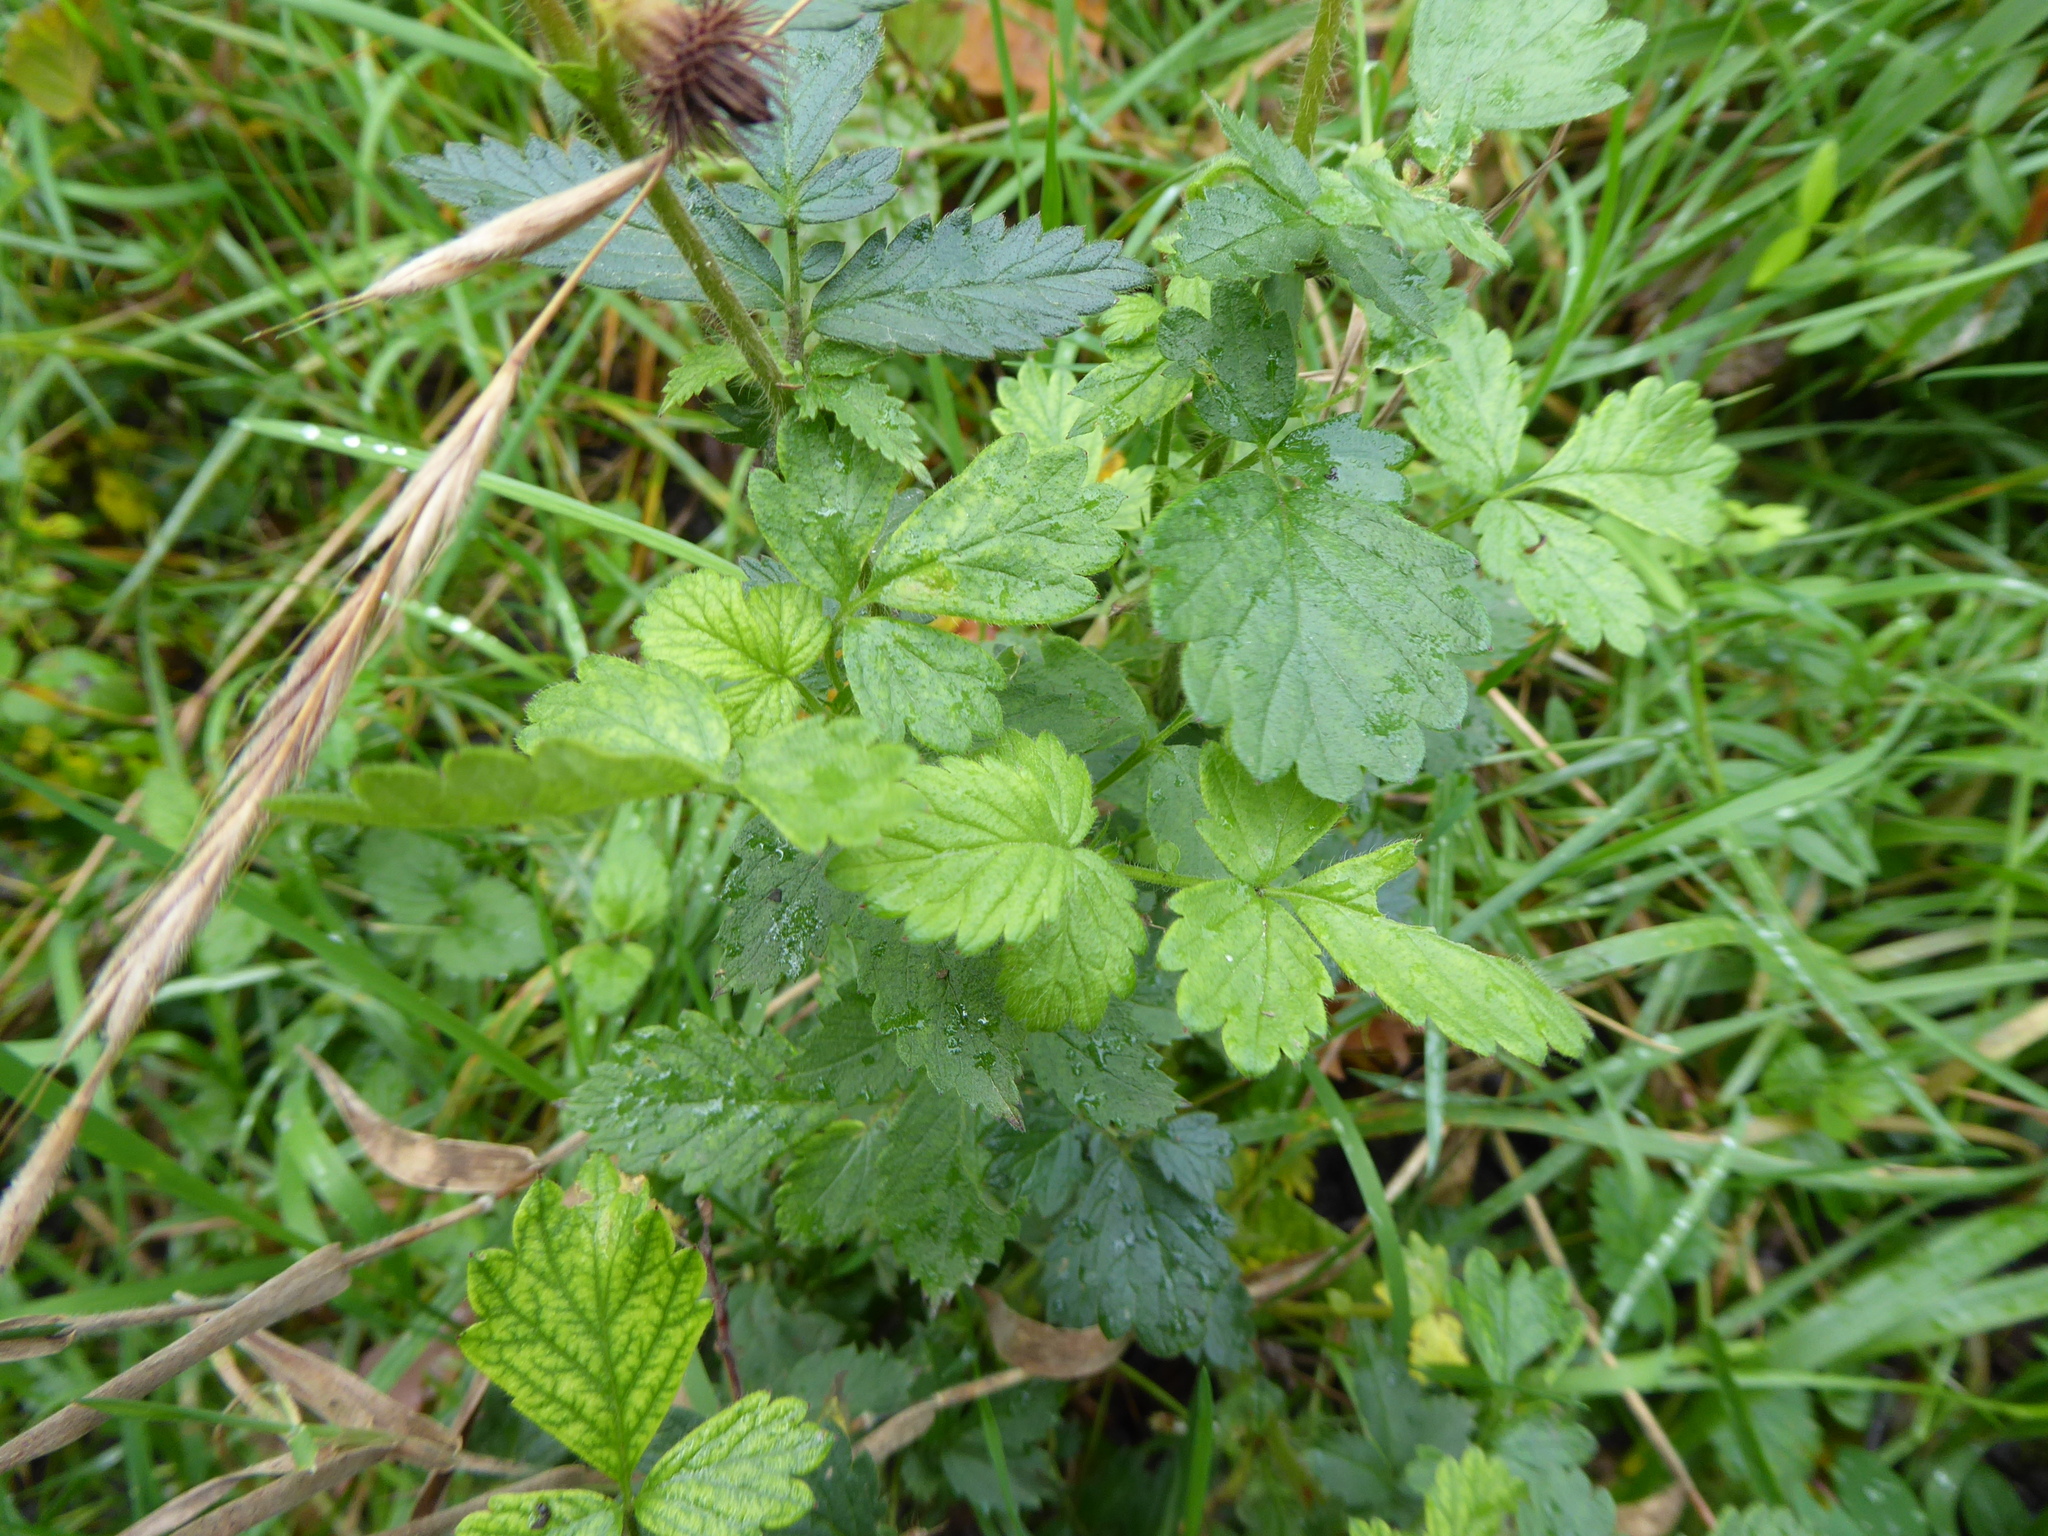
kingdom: Plantae
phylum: Tracheophyta
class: Magnoliopsida
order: Rosales
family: Rosaceae
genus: Agrimonia
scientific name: Agrimonia procera
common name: Fragrant agrimony
